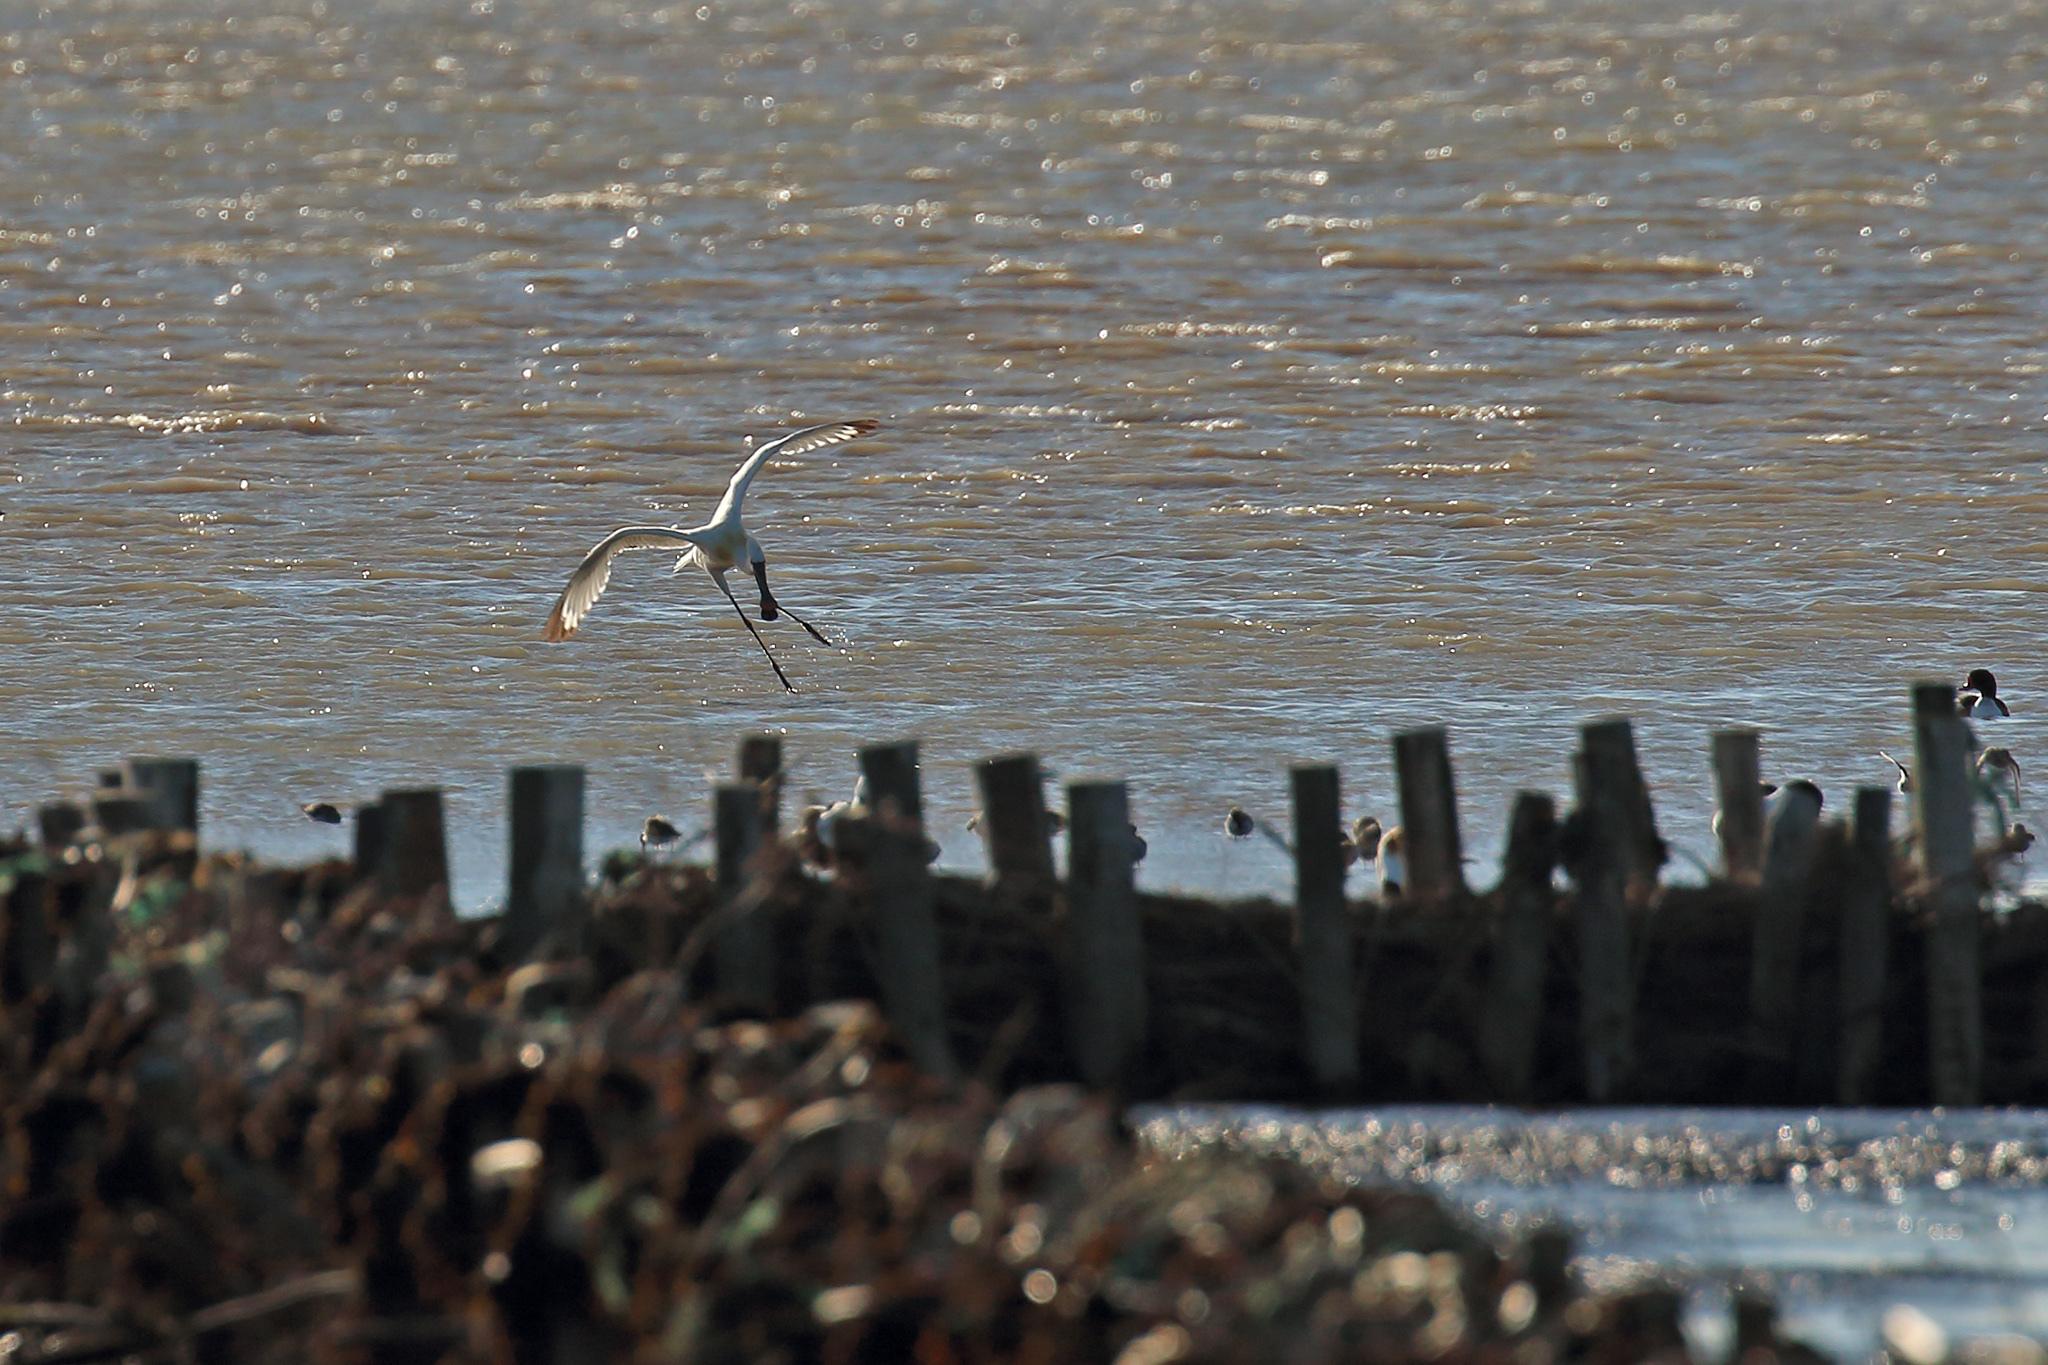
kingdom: Animalia
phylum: Chordata
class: Aves
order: Pelecaniformes
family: Threskiornithidae
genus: Platalea
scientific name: Platalea leucorodia
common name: Eurasian spoonbill
